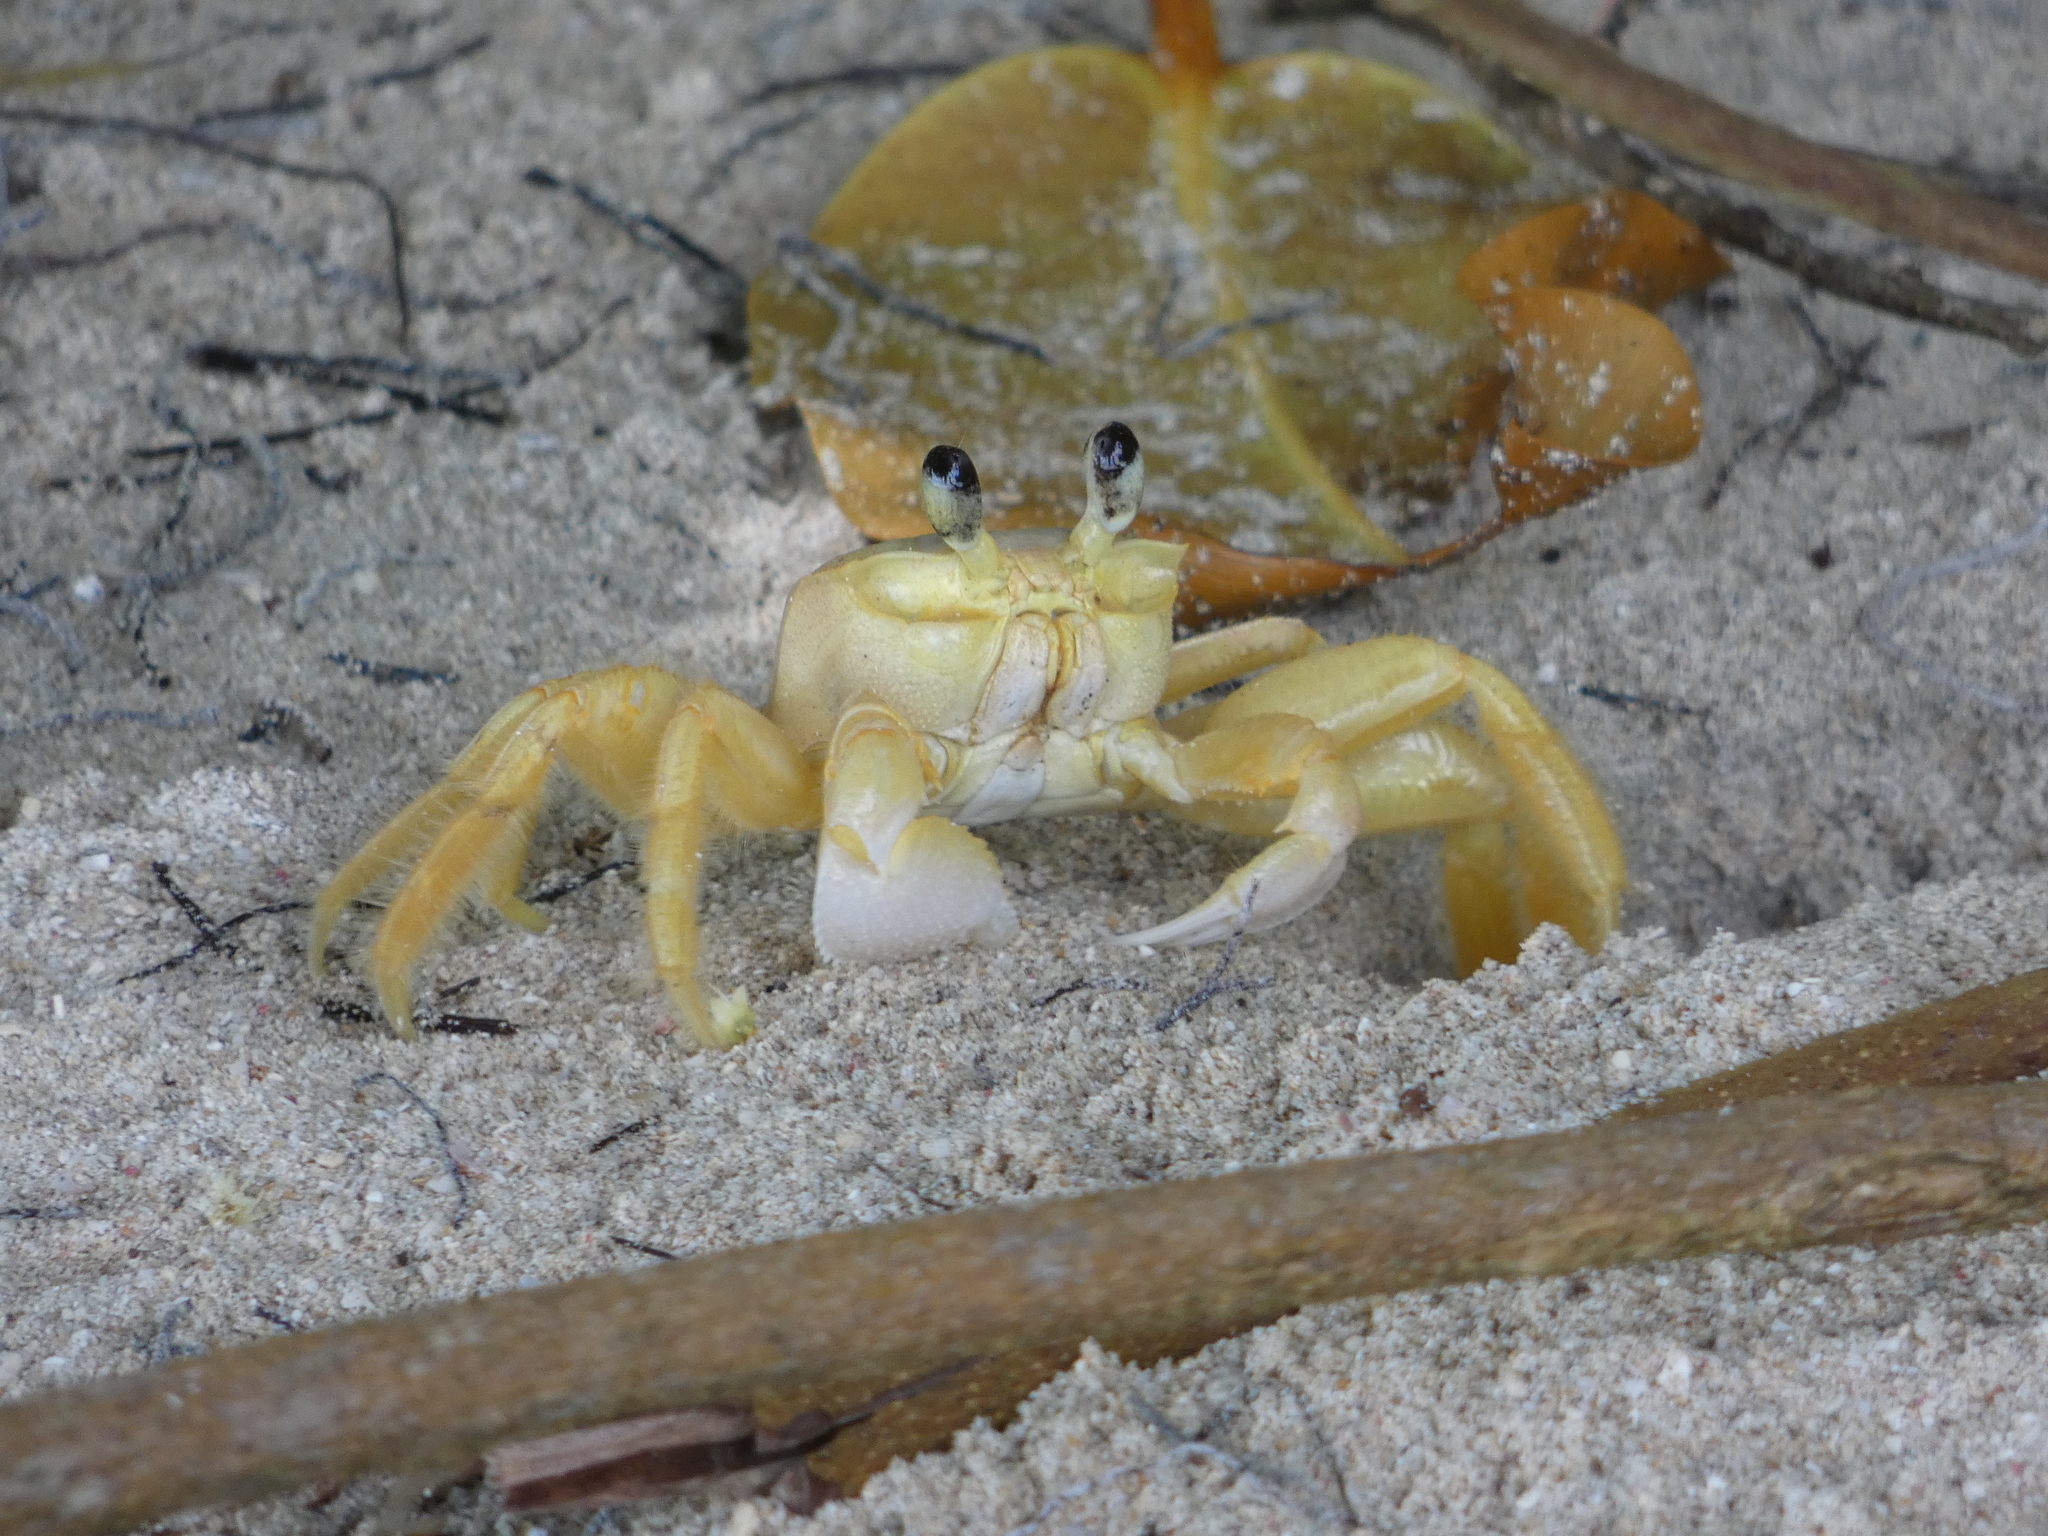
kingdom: Animalia
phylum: Arthropoda
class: Malacostraca
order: Decapoda
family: Ocypodidae
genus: Ocypode
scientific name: Ocypode quadrata
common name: Ghost crab
